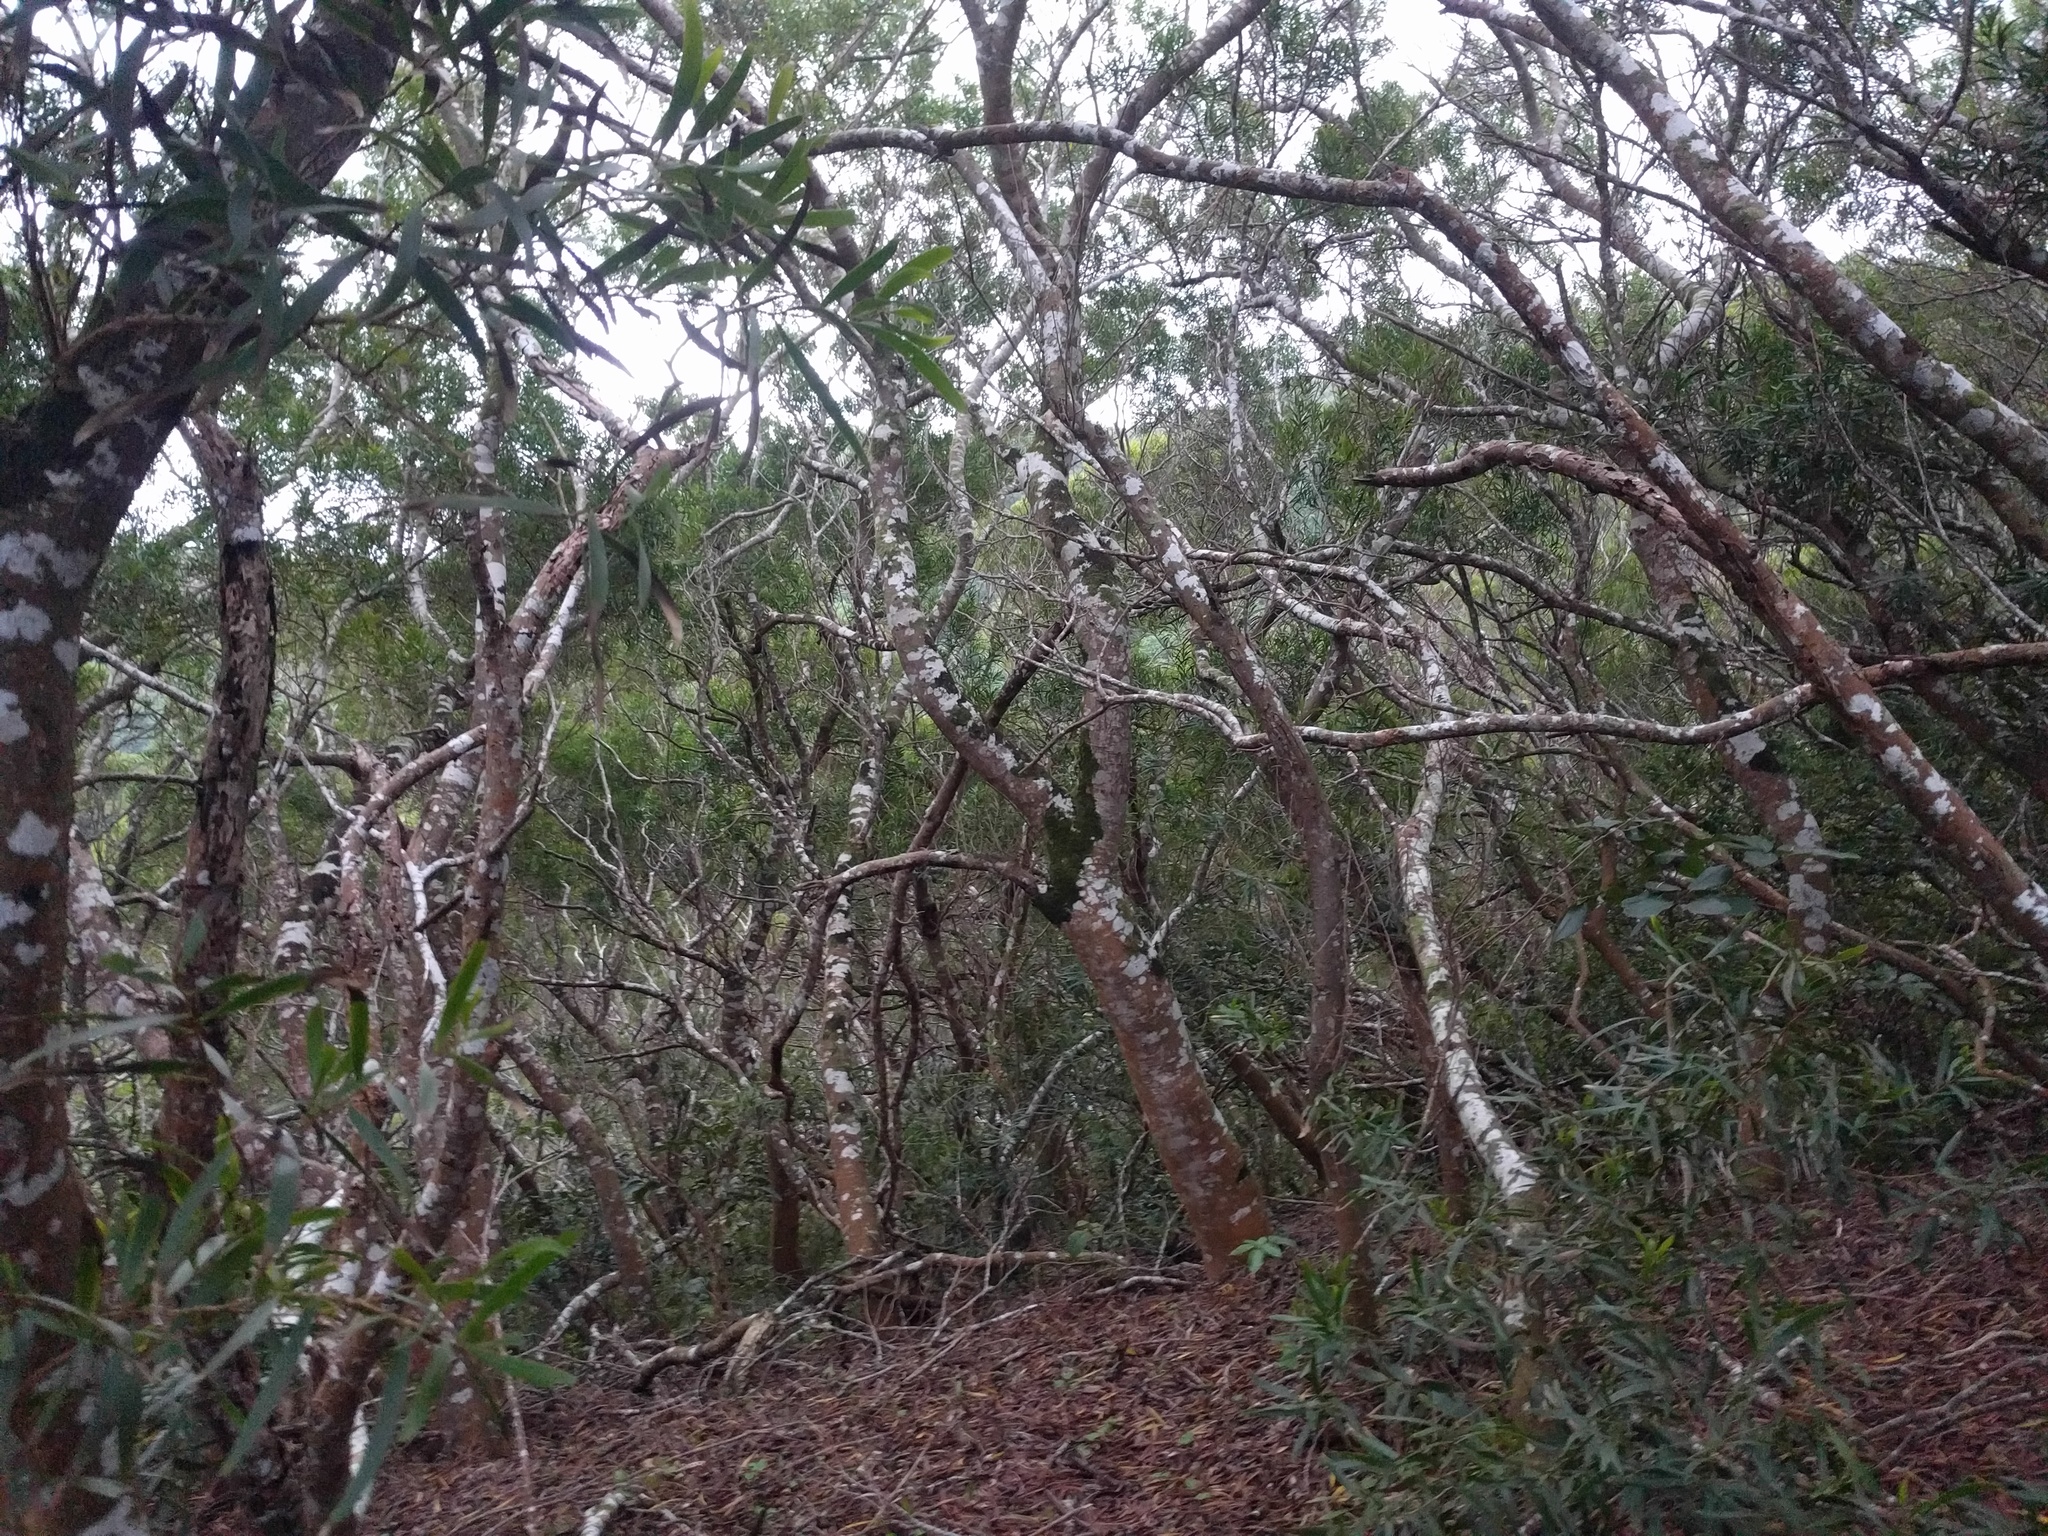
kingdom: Plantae
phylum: Tracheophyta
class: Magnoliopsida
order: Fabales
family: Fabaceae
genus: Acacia
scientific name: Acacia confusa
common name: Formosan koa
